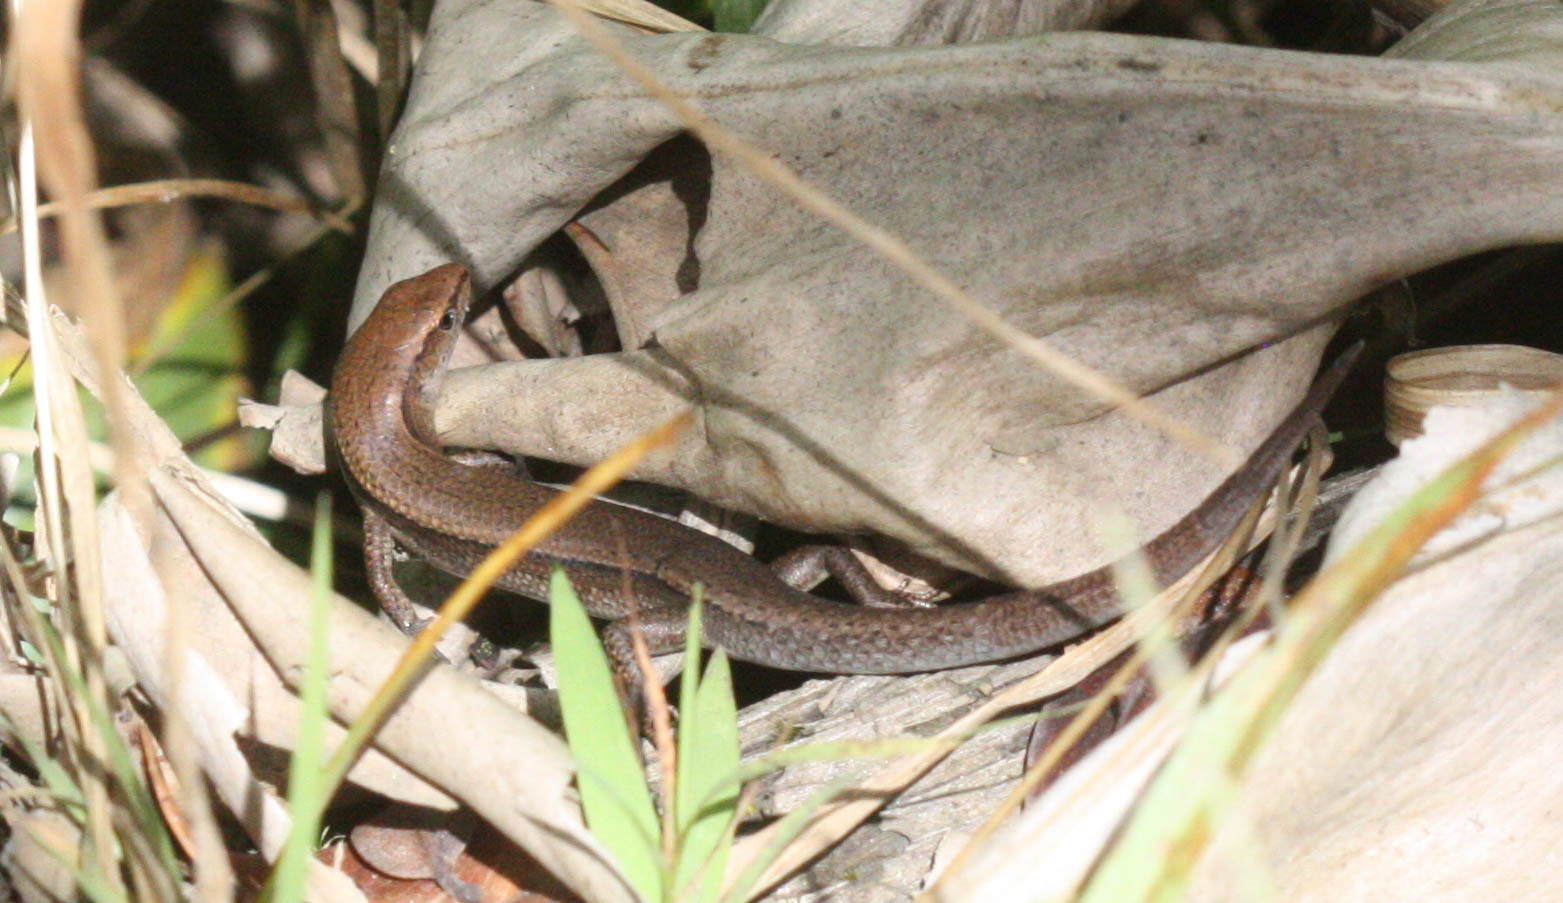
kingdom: Animalia
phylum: Chordata
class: Squamata
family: Scincidae
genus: Lampropholis
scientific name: Lampropholis delicata
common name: Plague skink
